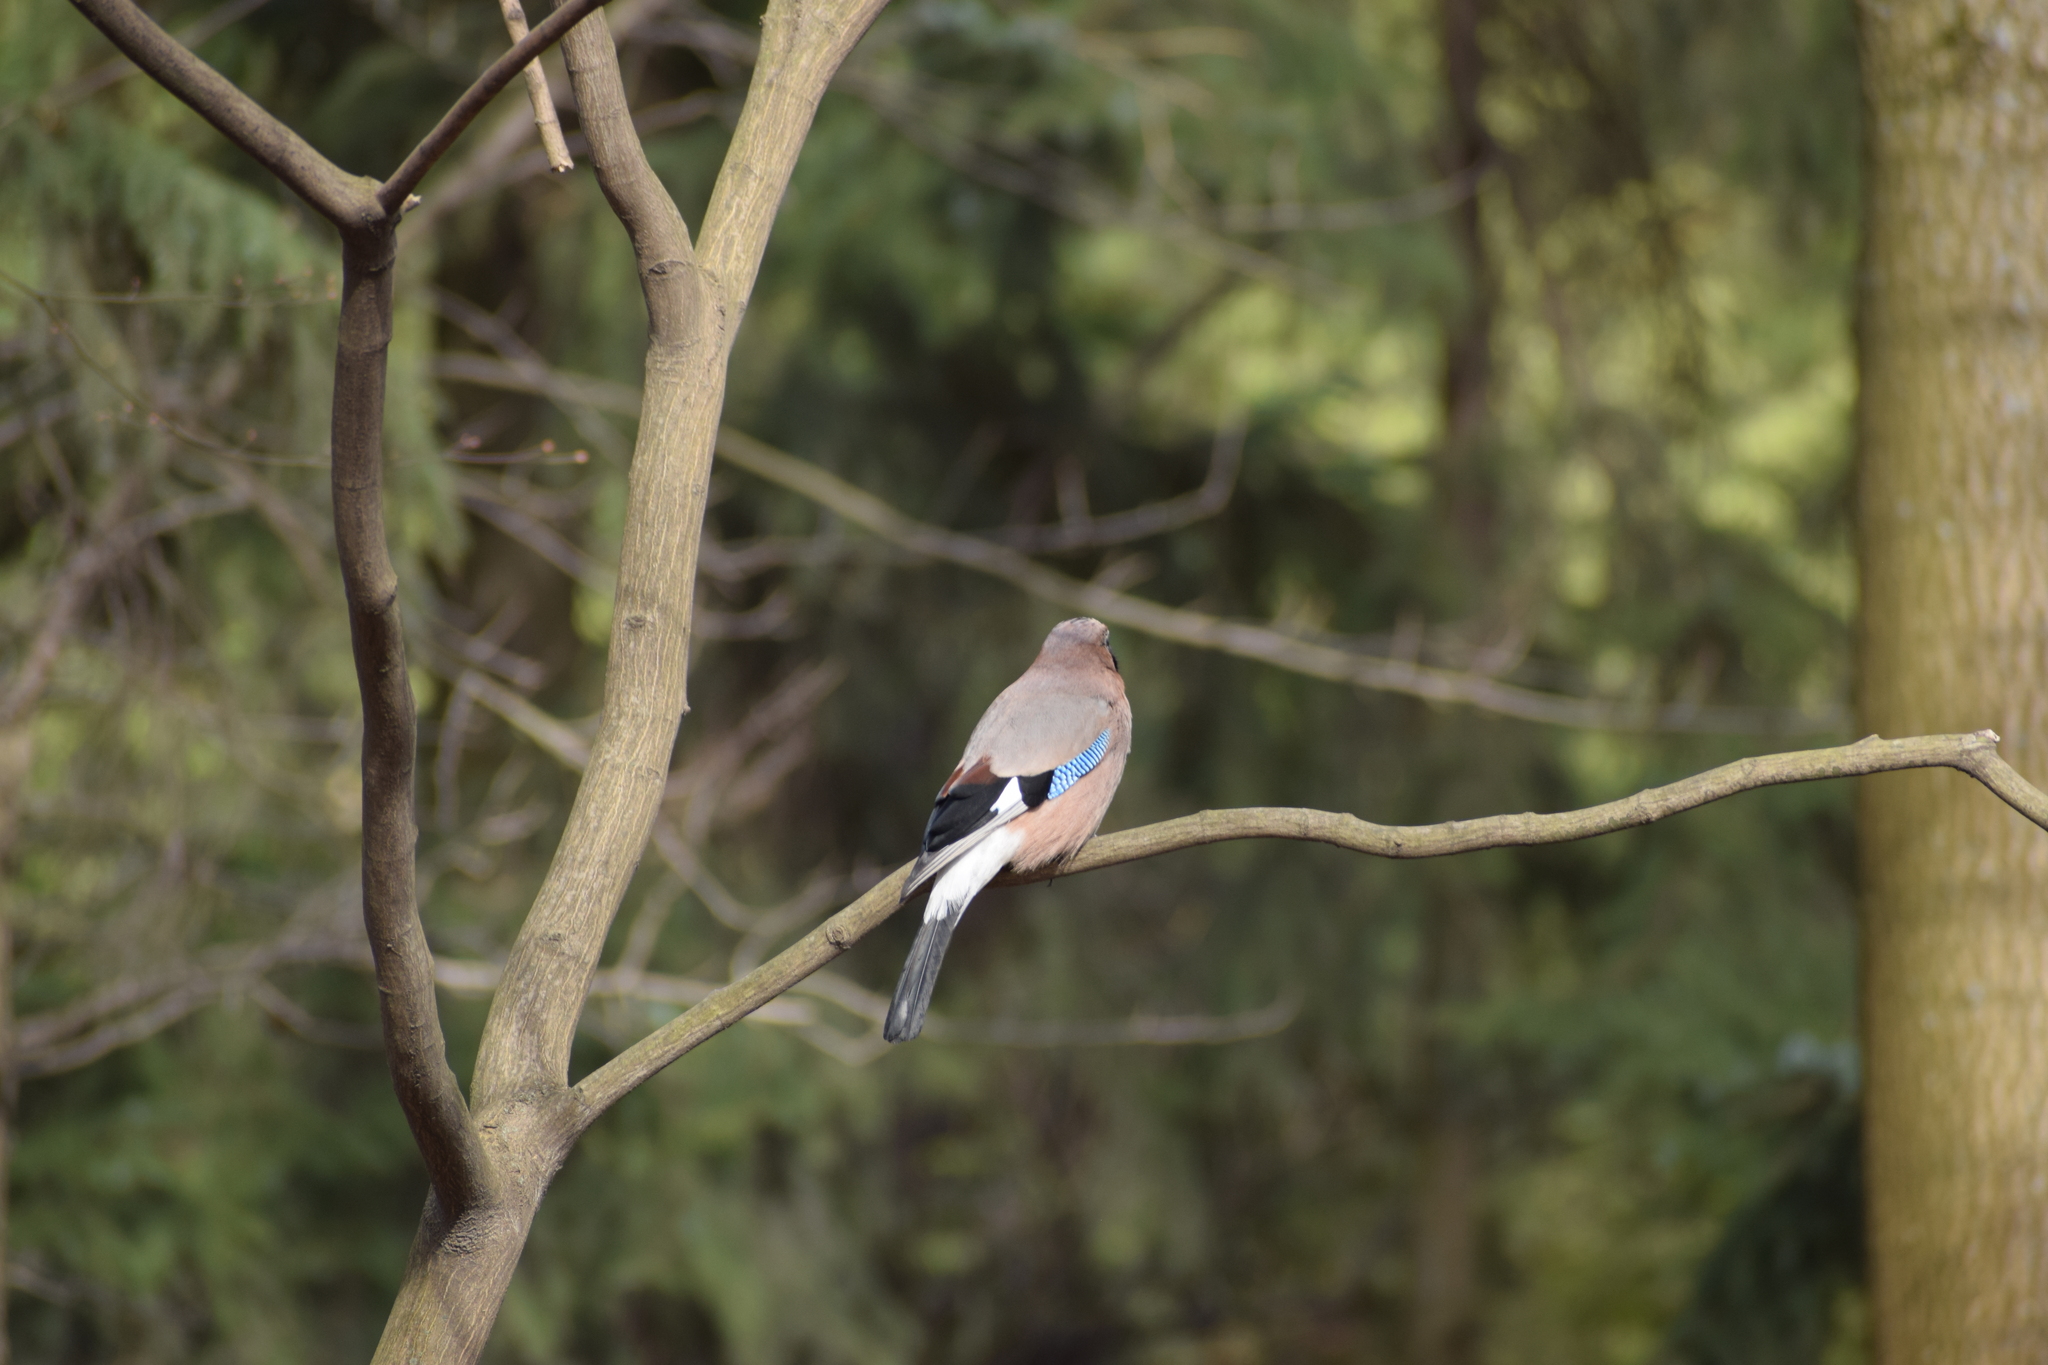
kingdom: Animalia
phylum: Chordata
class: Aves
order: Passeriformes
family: Corvidae
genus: Garrulus
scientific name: Garrulus glandarius
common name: Eurasian jay
